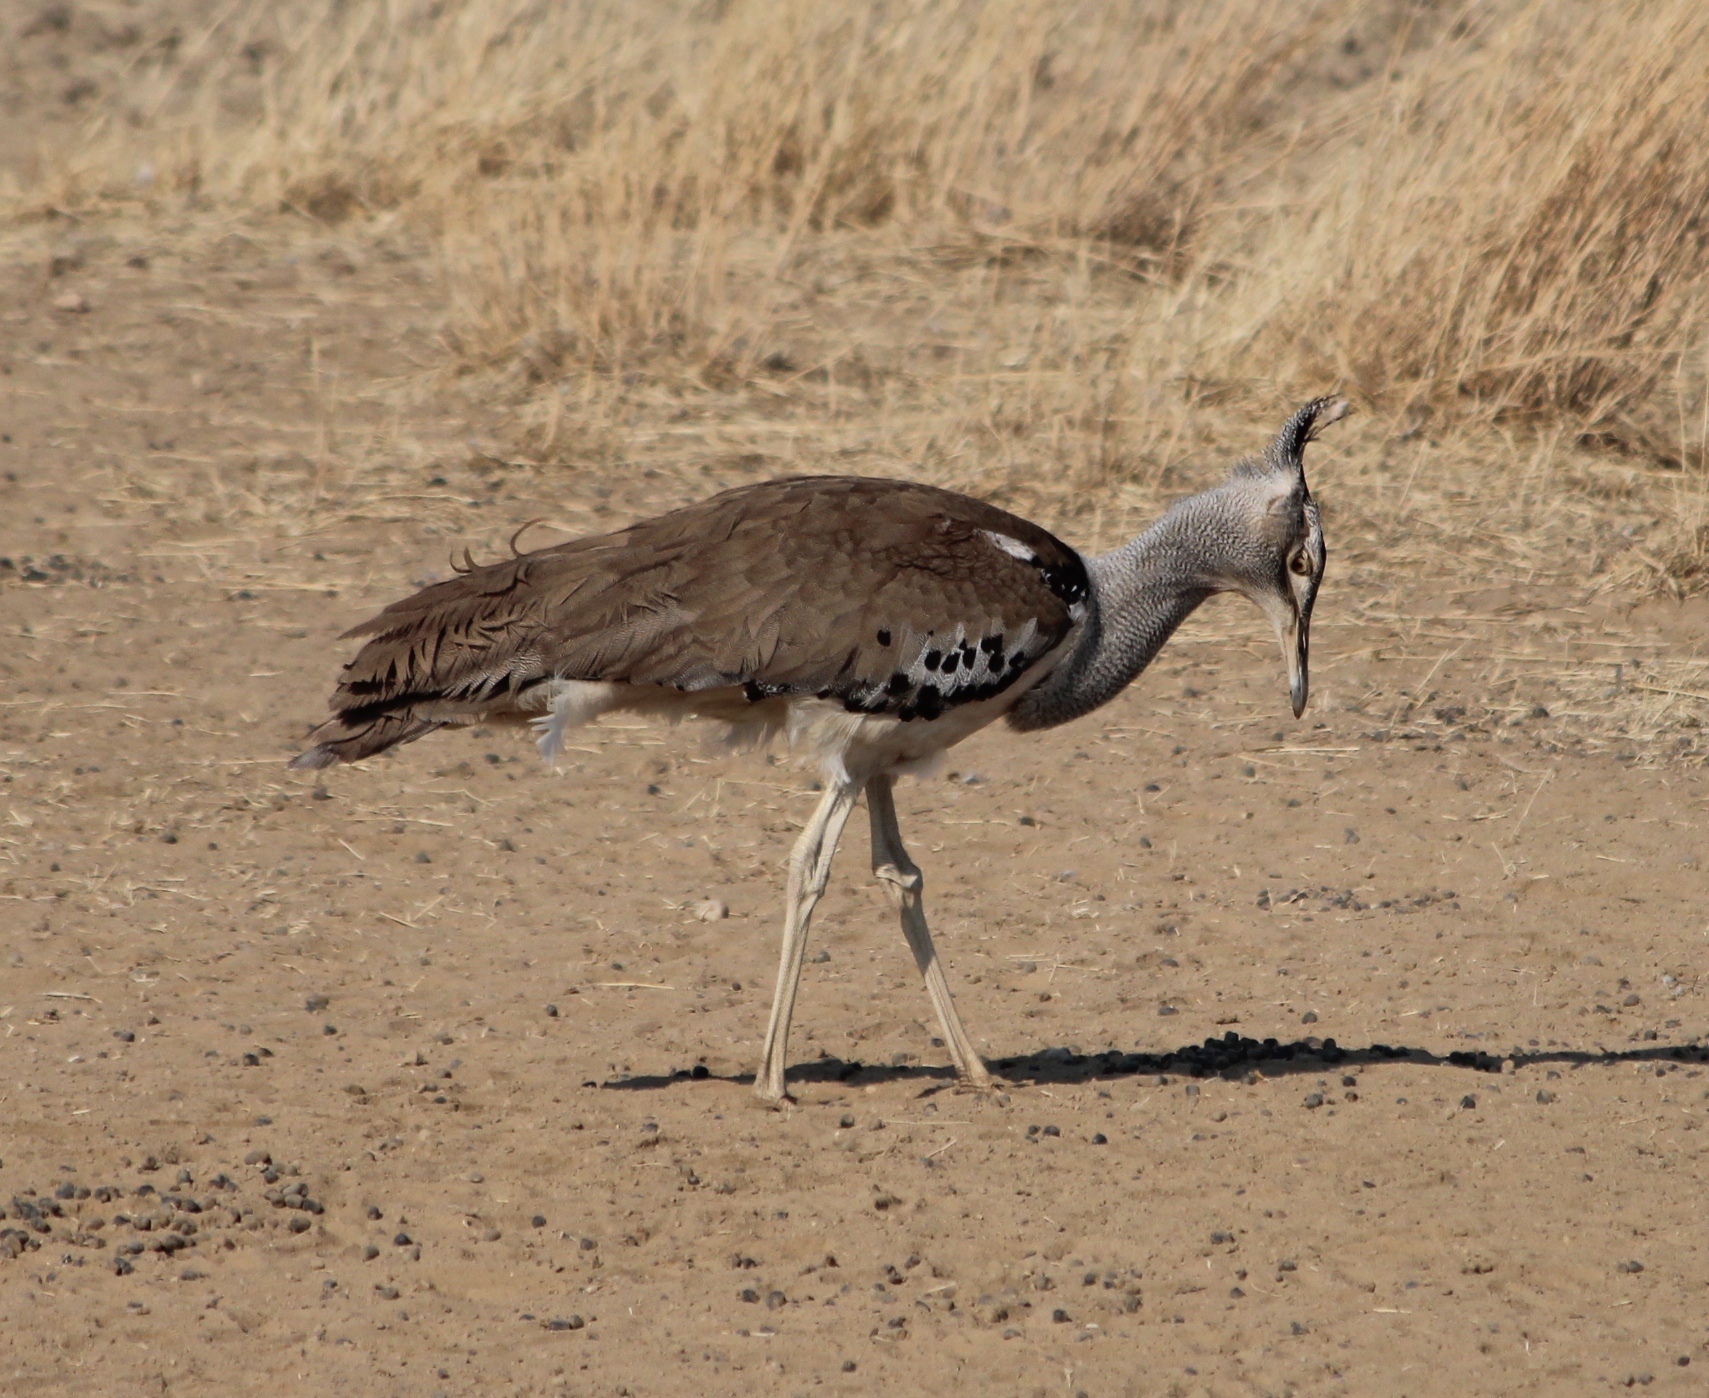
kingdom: Animalia
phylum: Chordata
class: Aves
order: Otidiformes
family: Otididae
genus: Ardeotis
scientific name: Ardeotis kori
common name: Kori bustard
